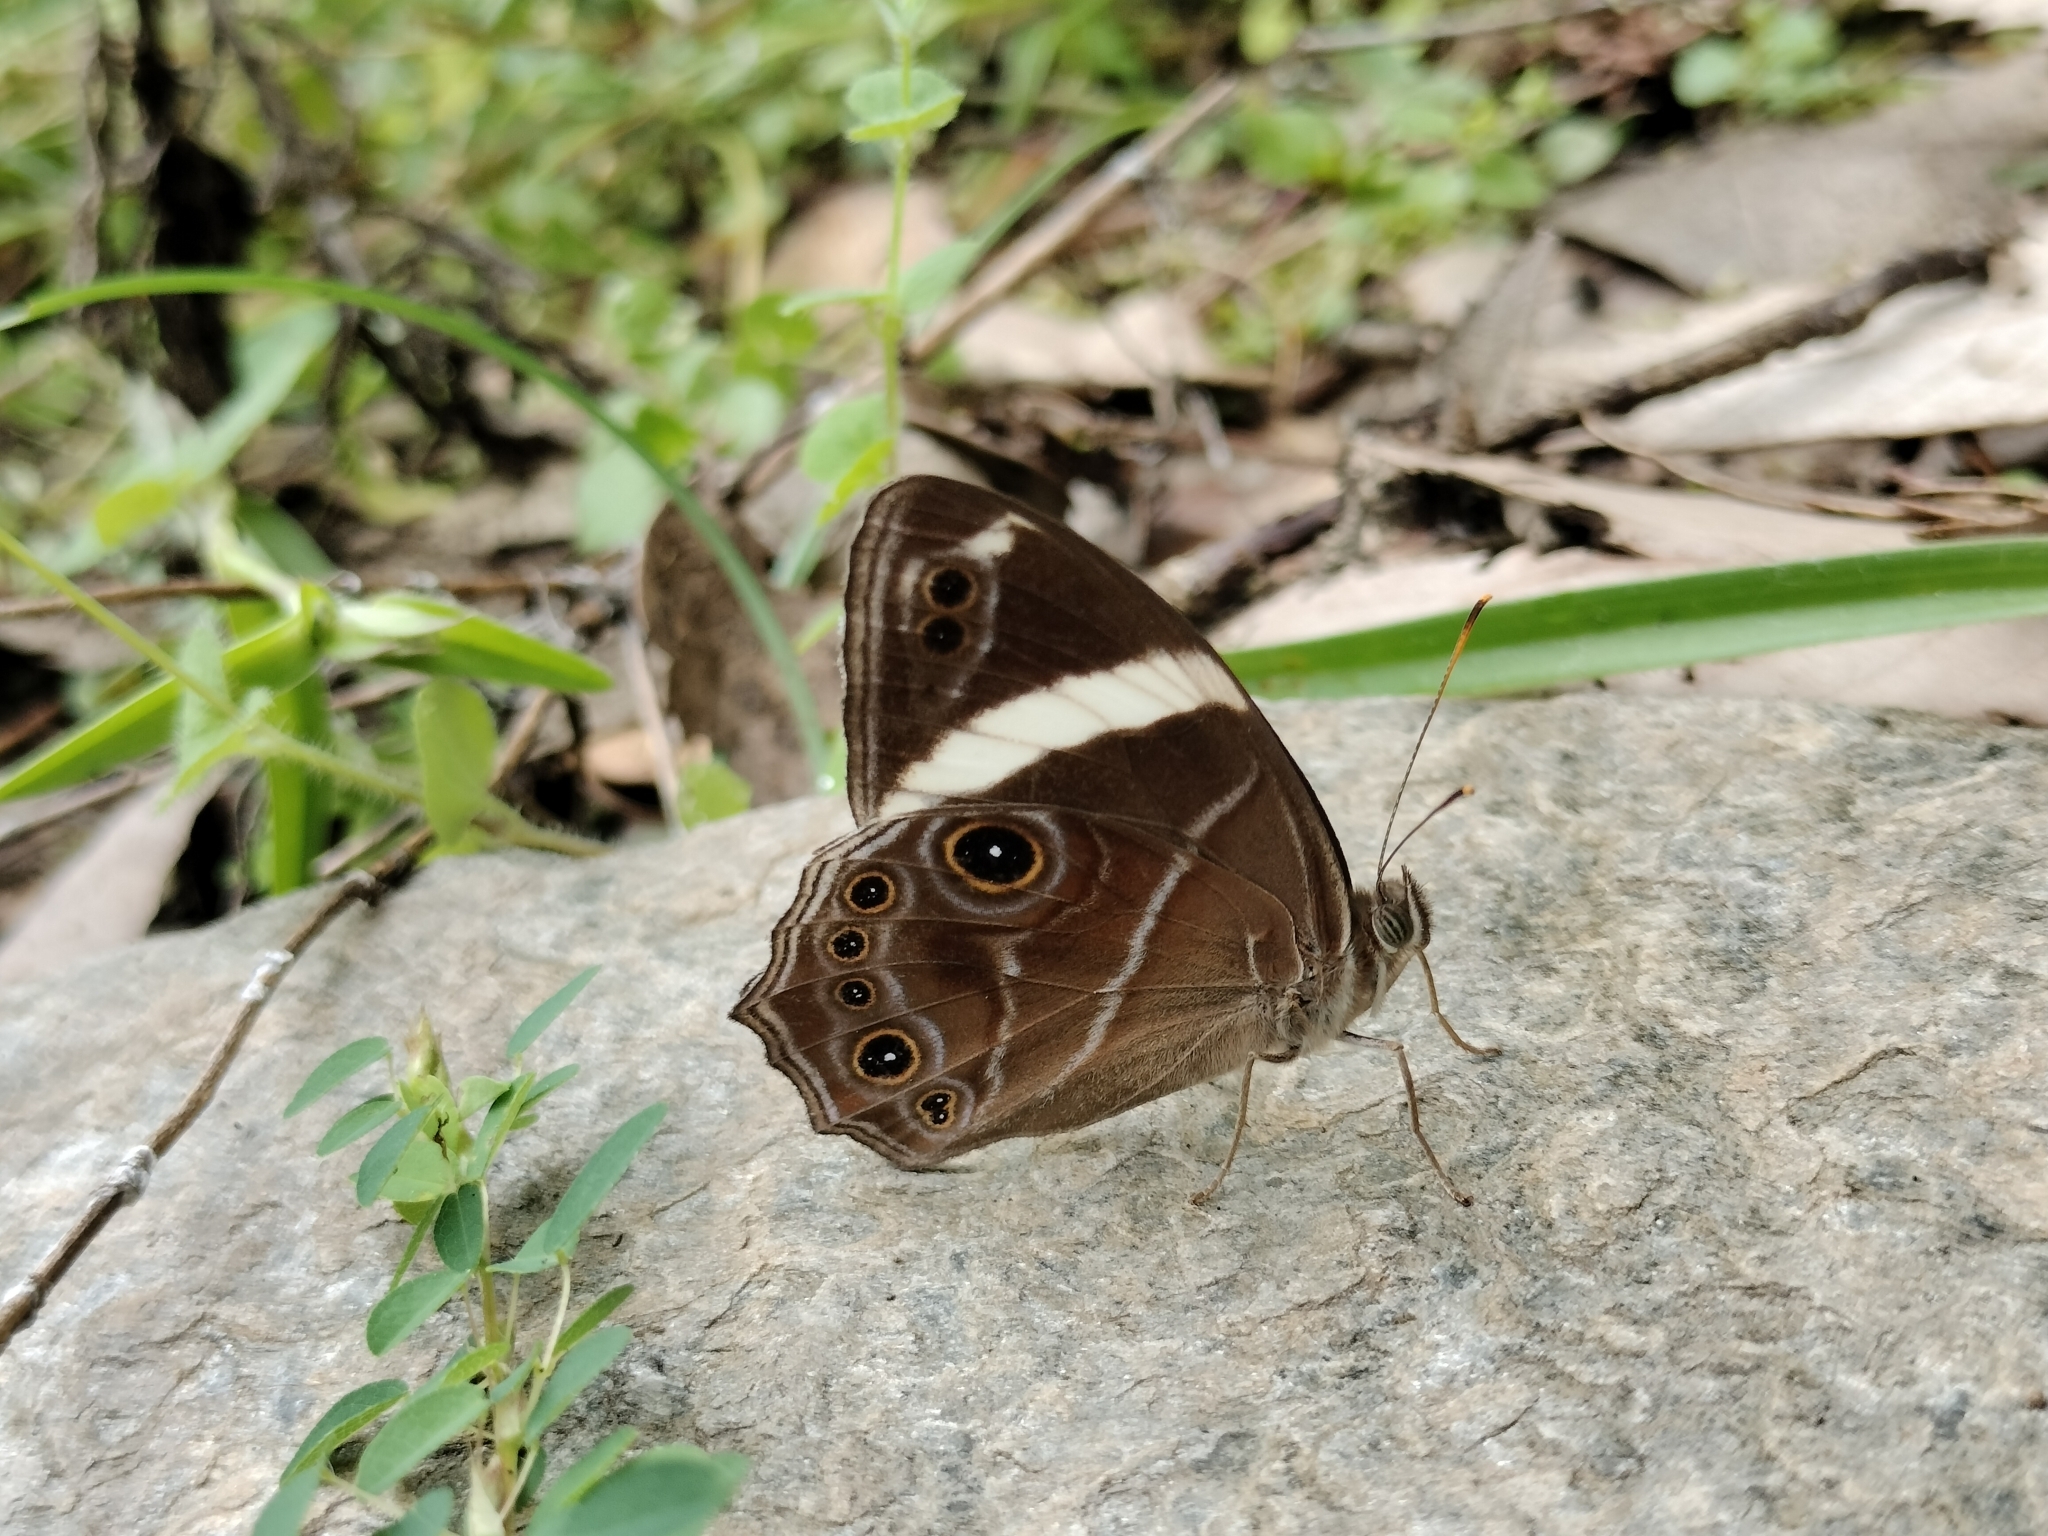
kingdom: Animalia
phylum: Arthropoda
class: Insecta
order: Lepidoptera
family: Nymphalidae
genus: Lethe
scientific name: Lethe confusa
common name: Banded treebrown
